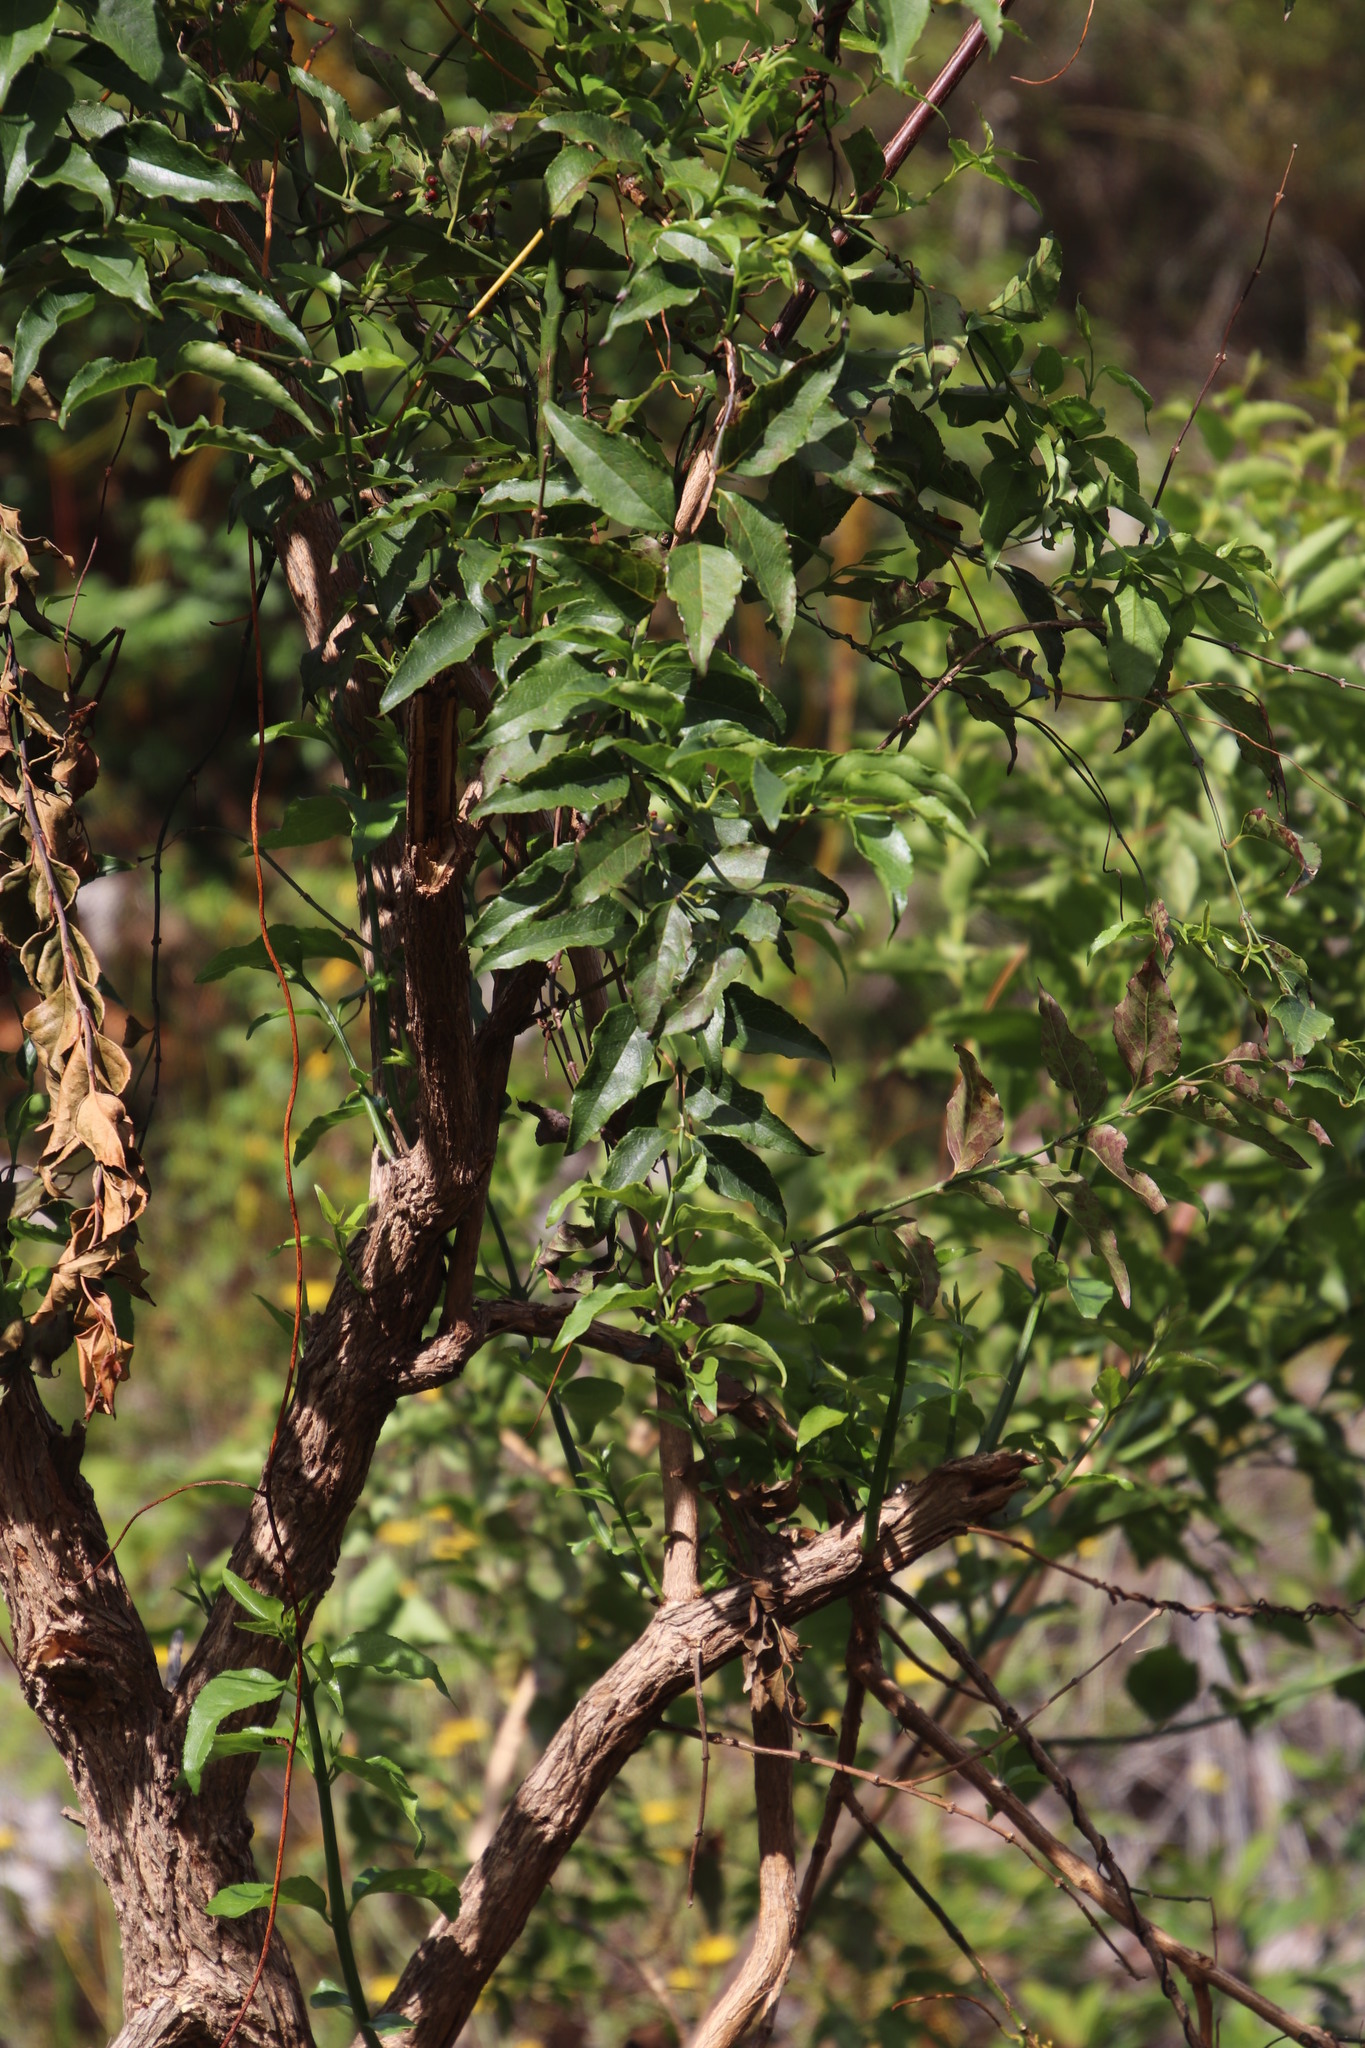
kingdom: Plantae
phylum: Tracheophyta
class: Magnoliopsida
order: Lamiales
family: Stilbaceae
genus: Halleria
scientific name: Halleria lucida
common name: Tree fuschia
